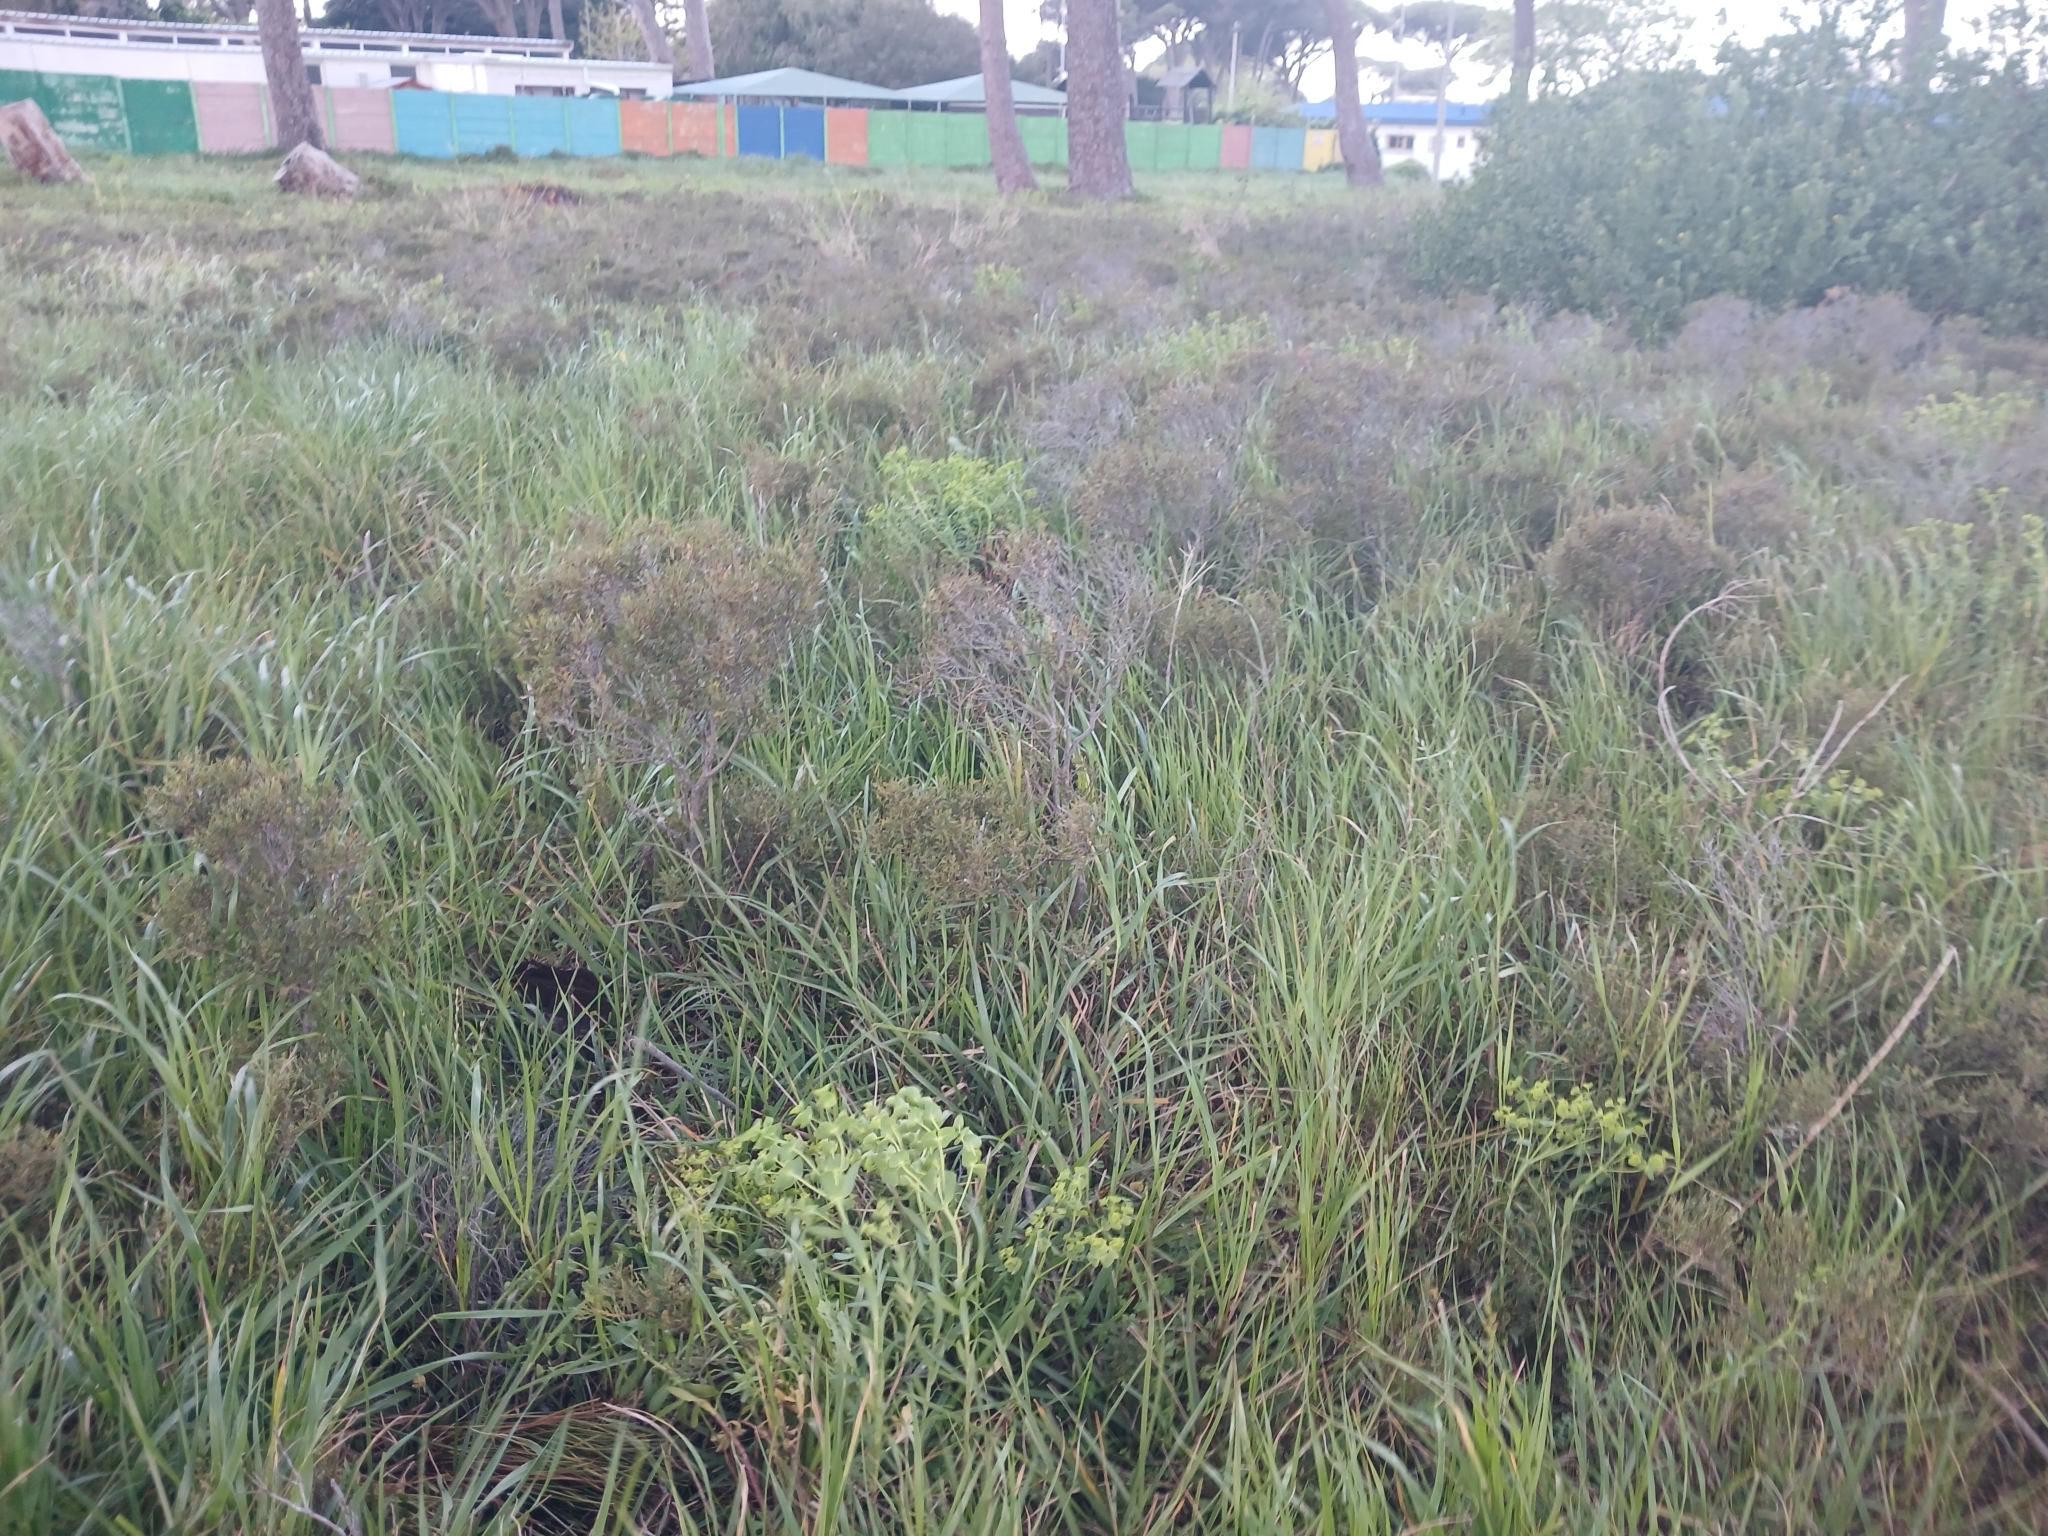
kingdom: Plantae
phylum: Tracheophyta
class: Magnoliopsida
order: Fagales
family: Myricaceae
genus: Morella
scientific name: Morella quercifolia
